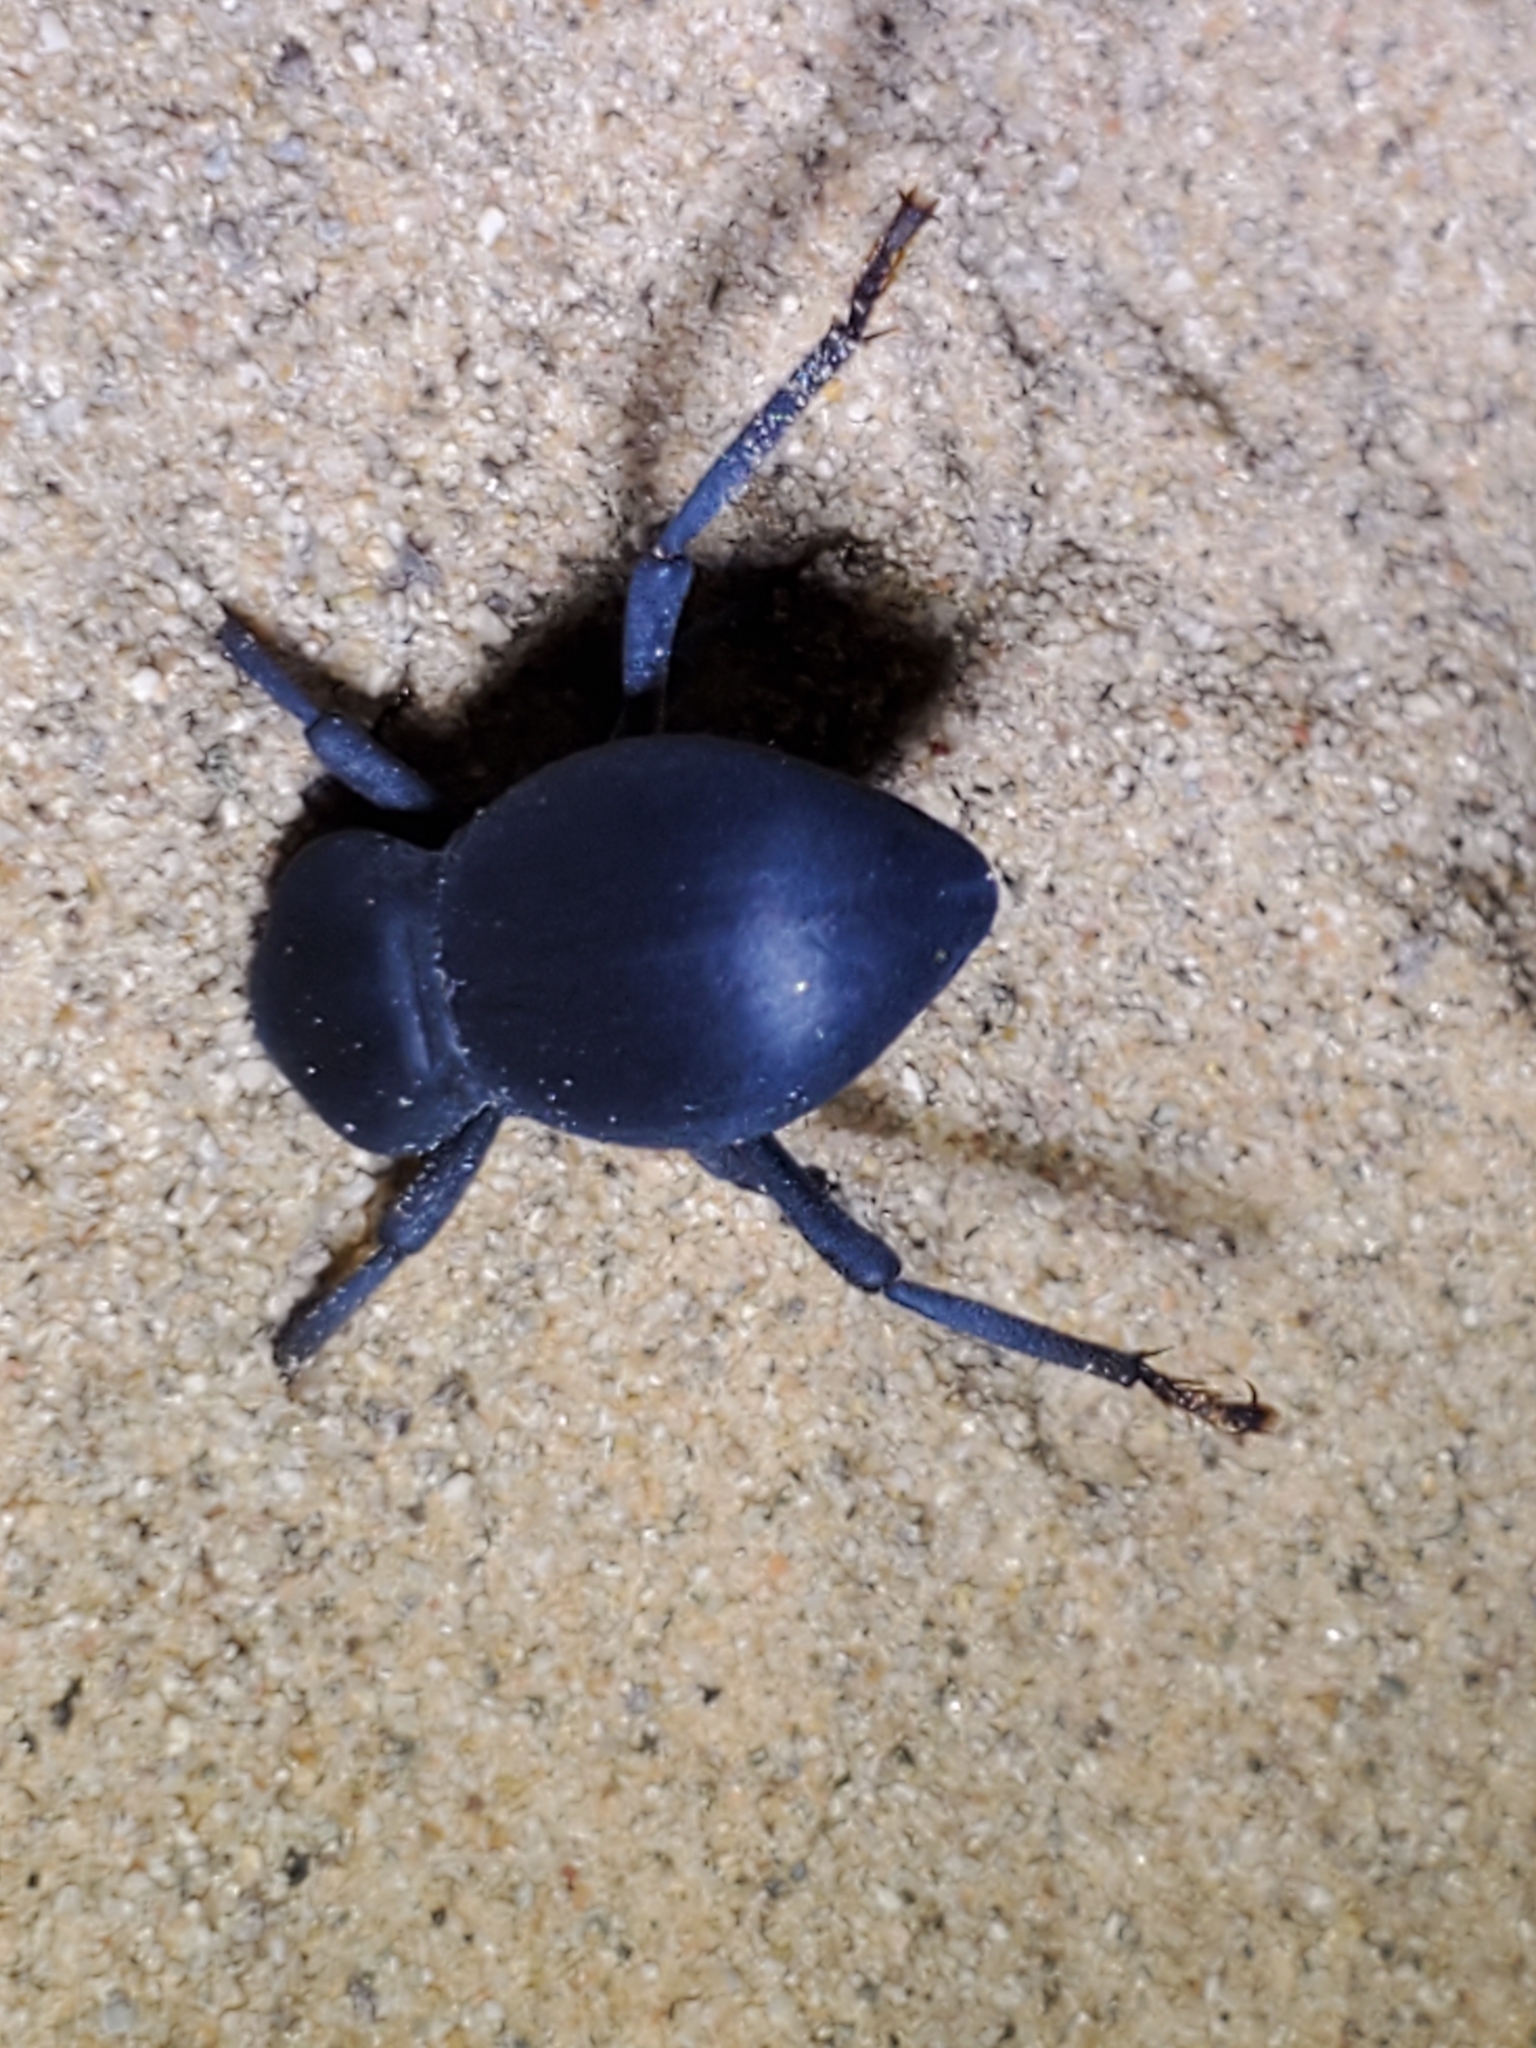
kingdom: Animalia
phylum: Arthropoda
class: Insecta
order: Coleoptera
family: Tenebrionidae
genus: Asbolus
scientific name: Asbolus laevis
